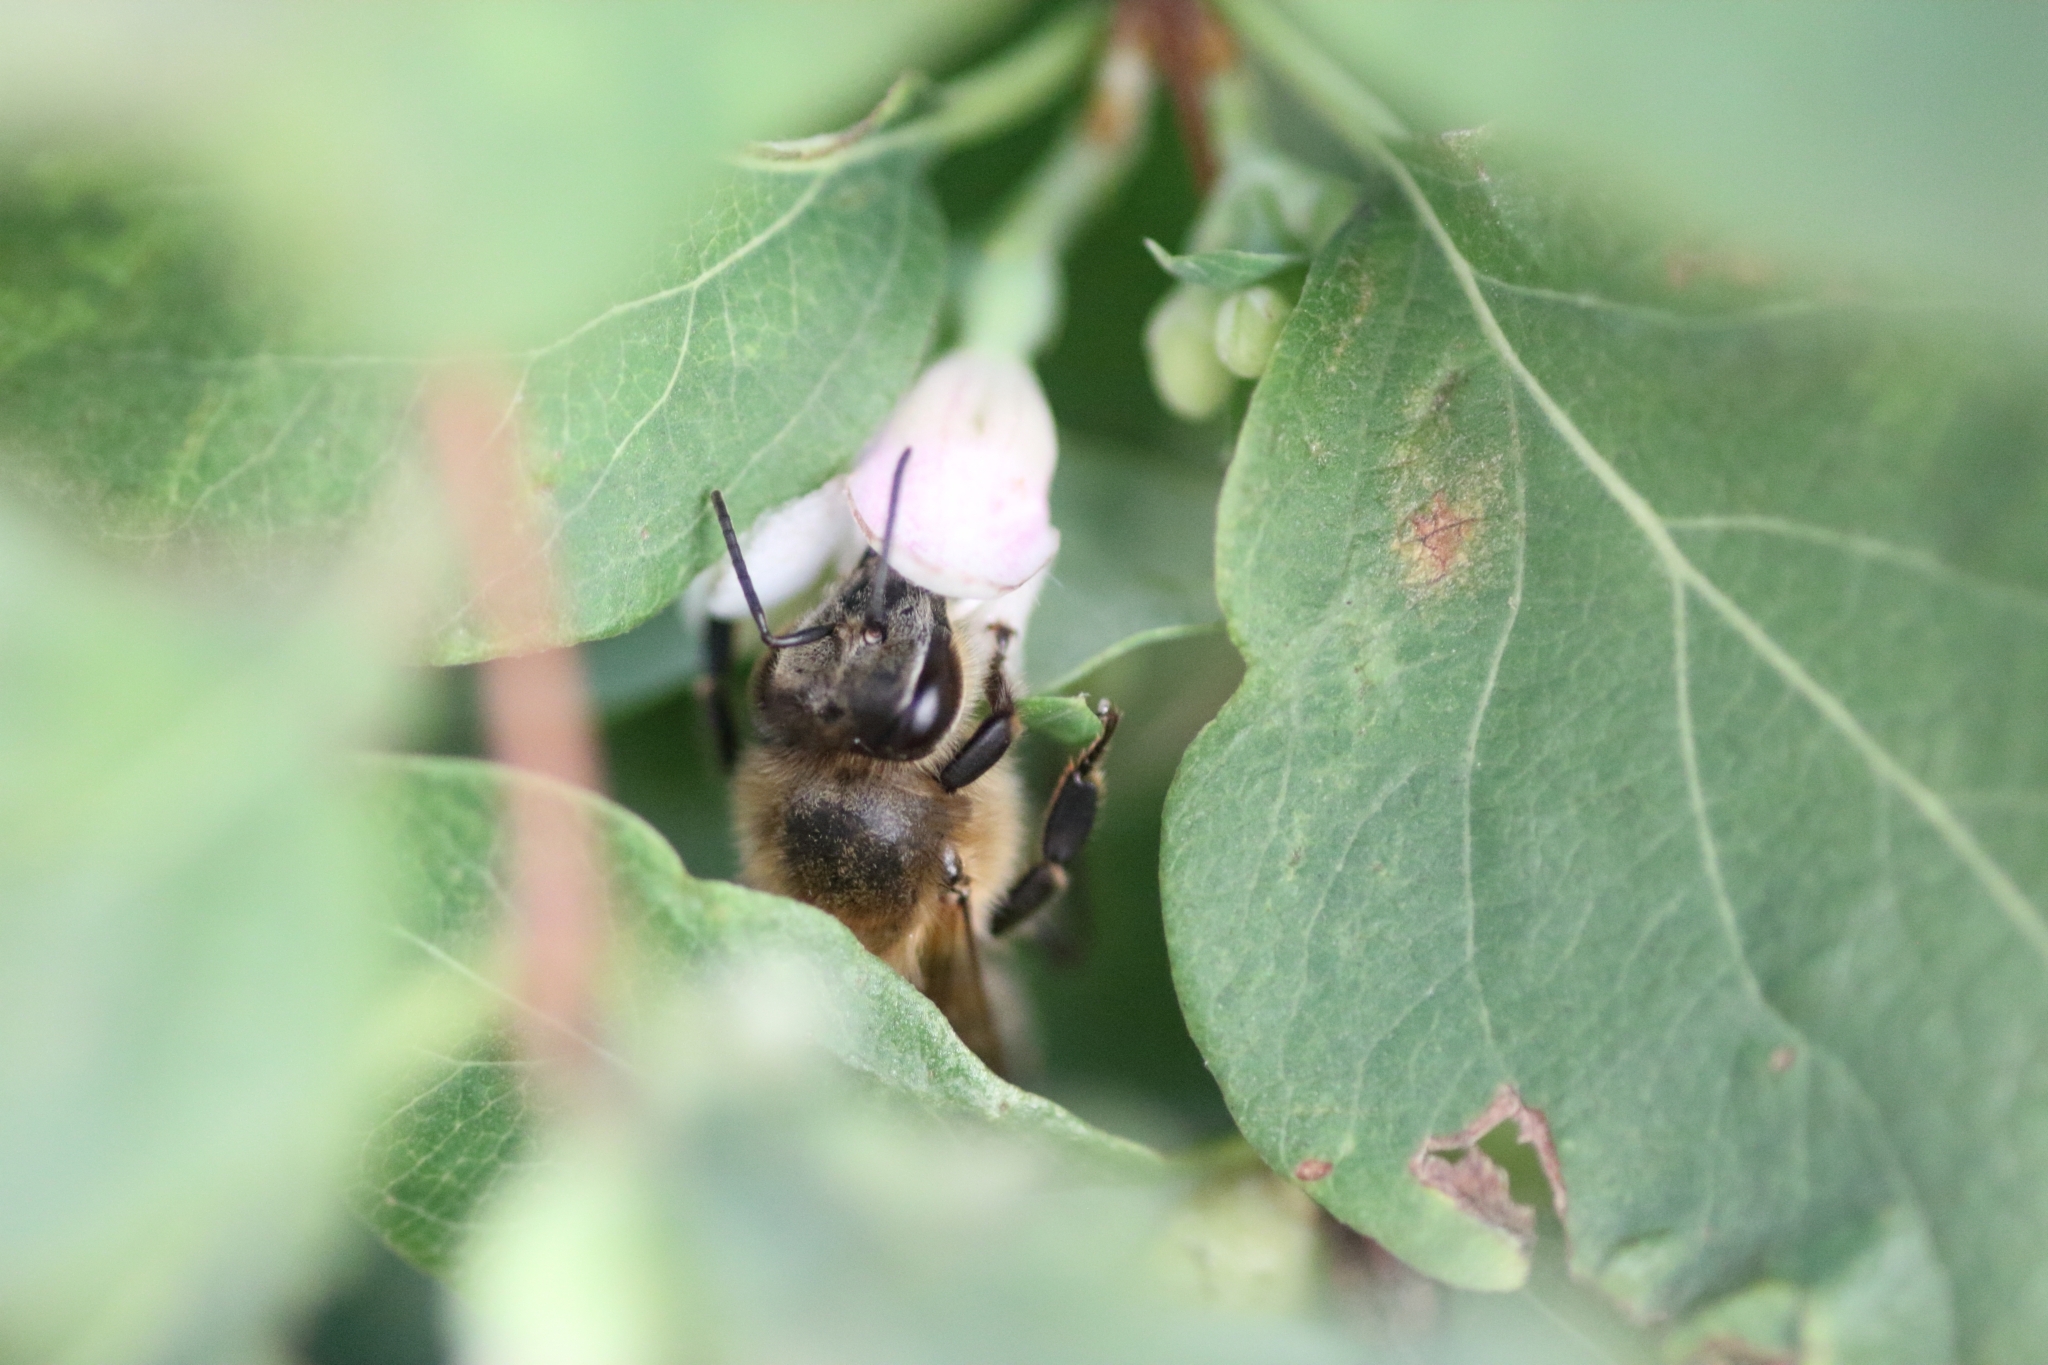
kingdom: Animalia
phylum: Arthropoda
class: Insecta
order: Hymenoptera
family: Apidae
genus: Apis
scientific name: Apis mellifera
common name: Honey bee
